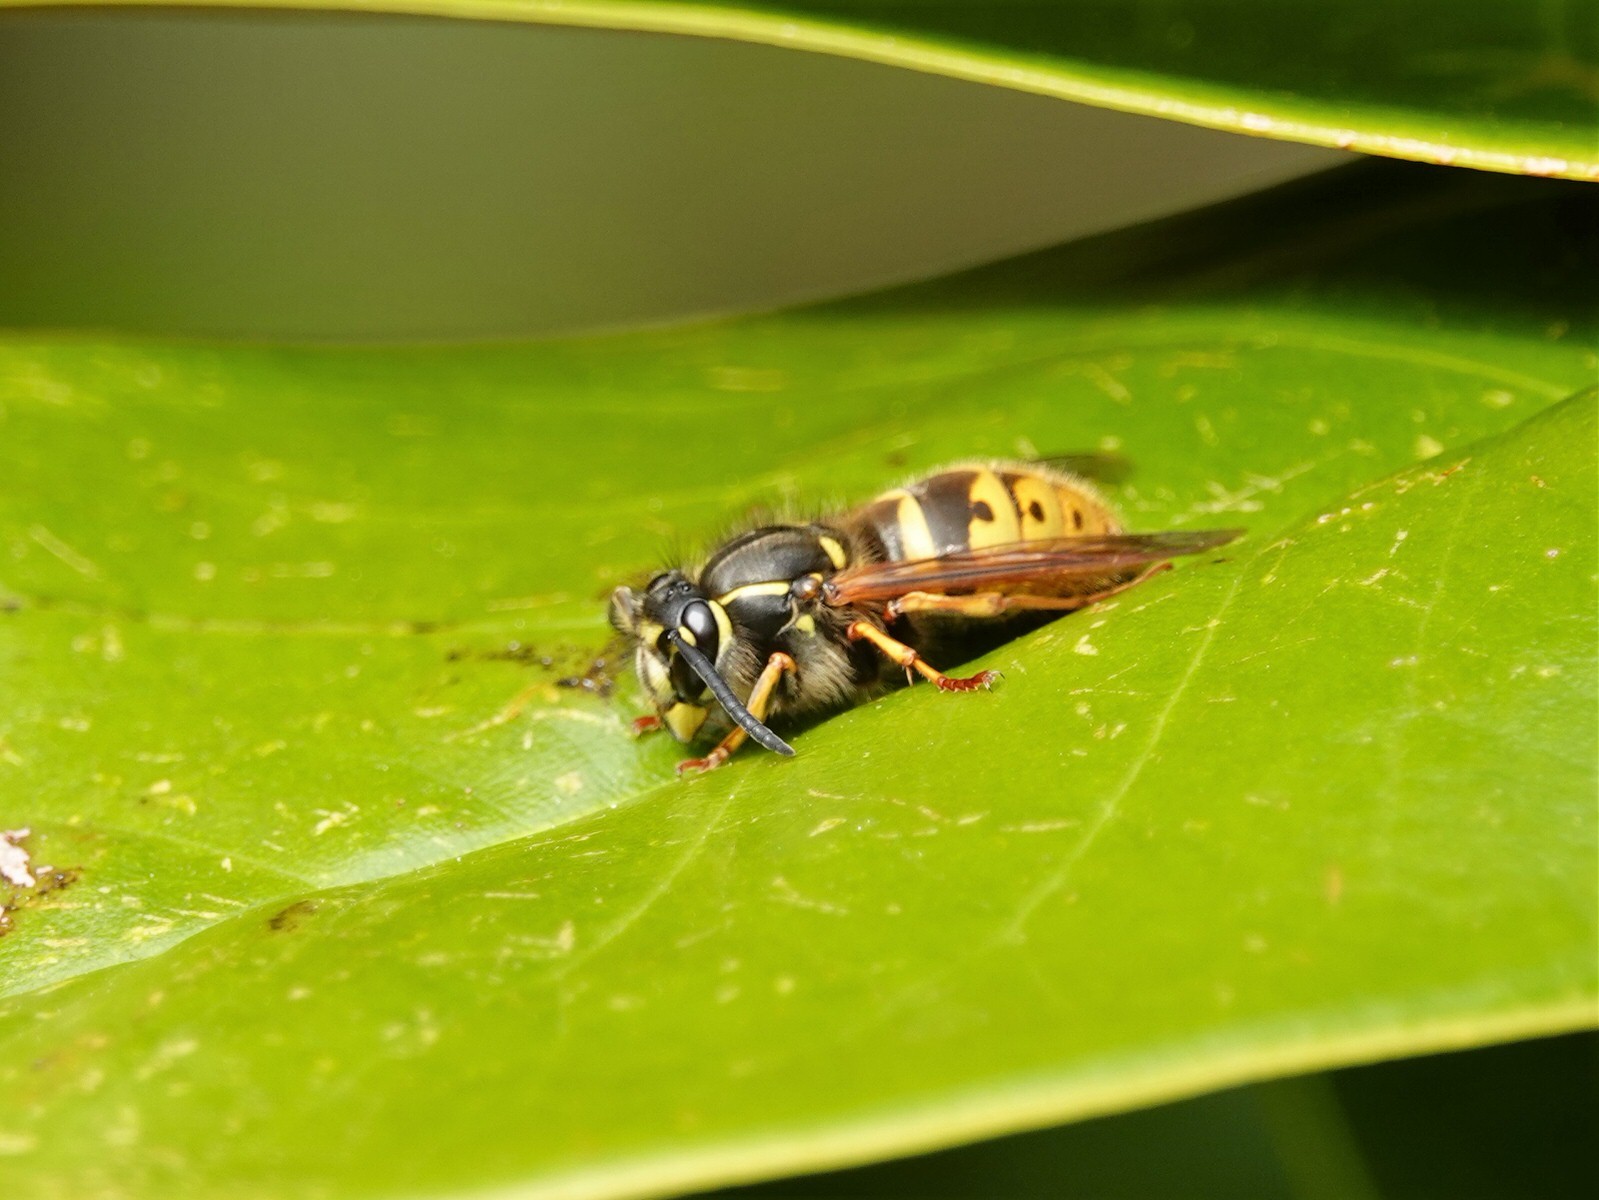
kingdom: Animalia
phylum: Arthropoda
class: Insecta
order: Hymenoptera
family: Vespidae
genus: Vespula
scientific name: Vespula vulgaris
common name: Common wasp
